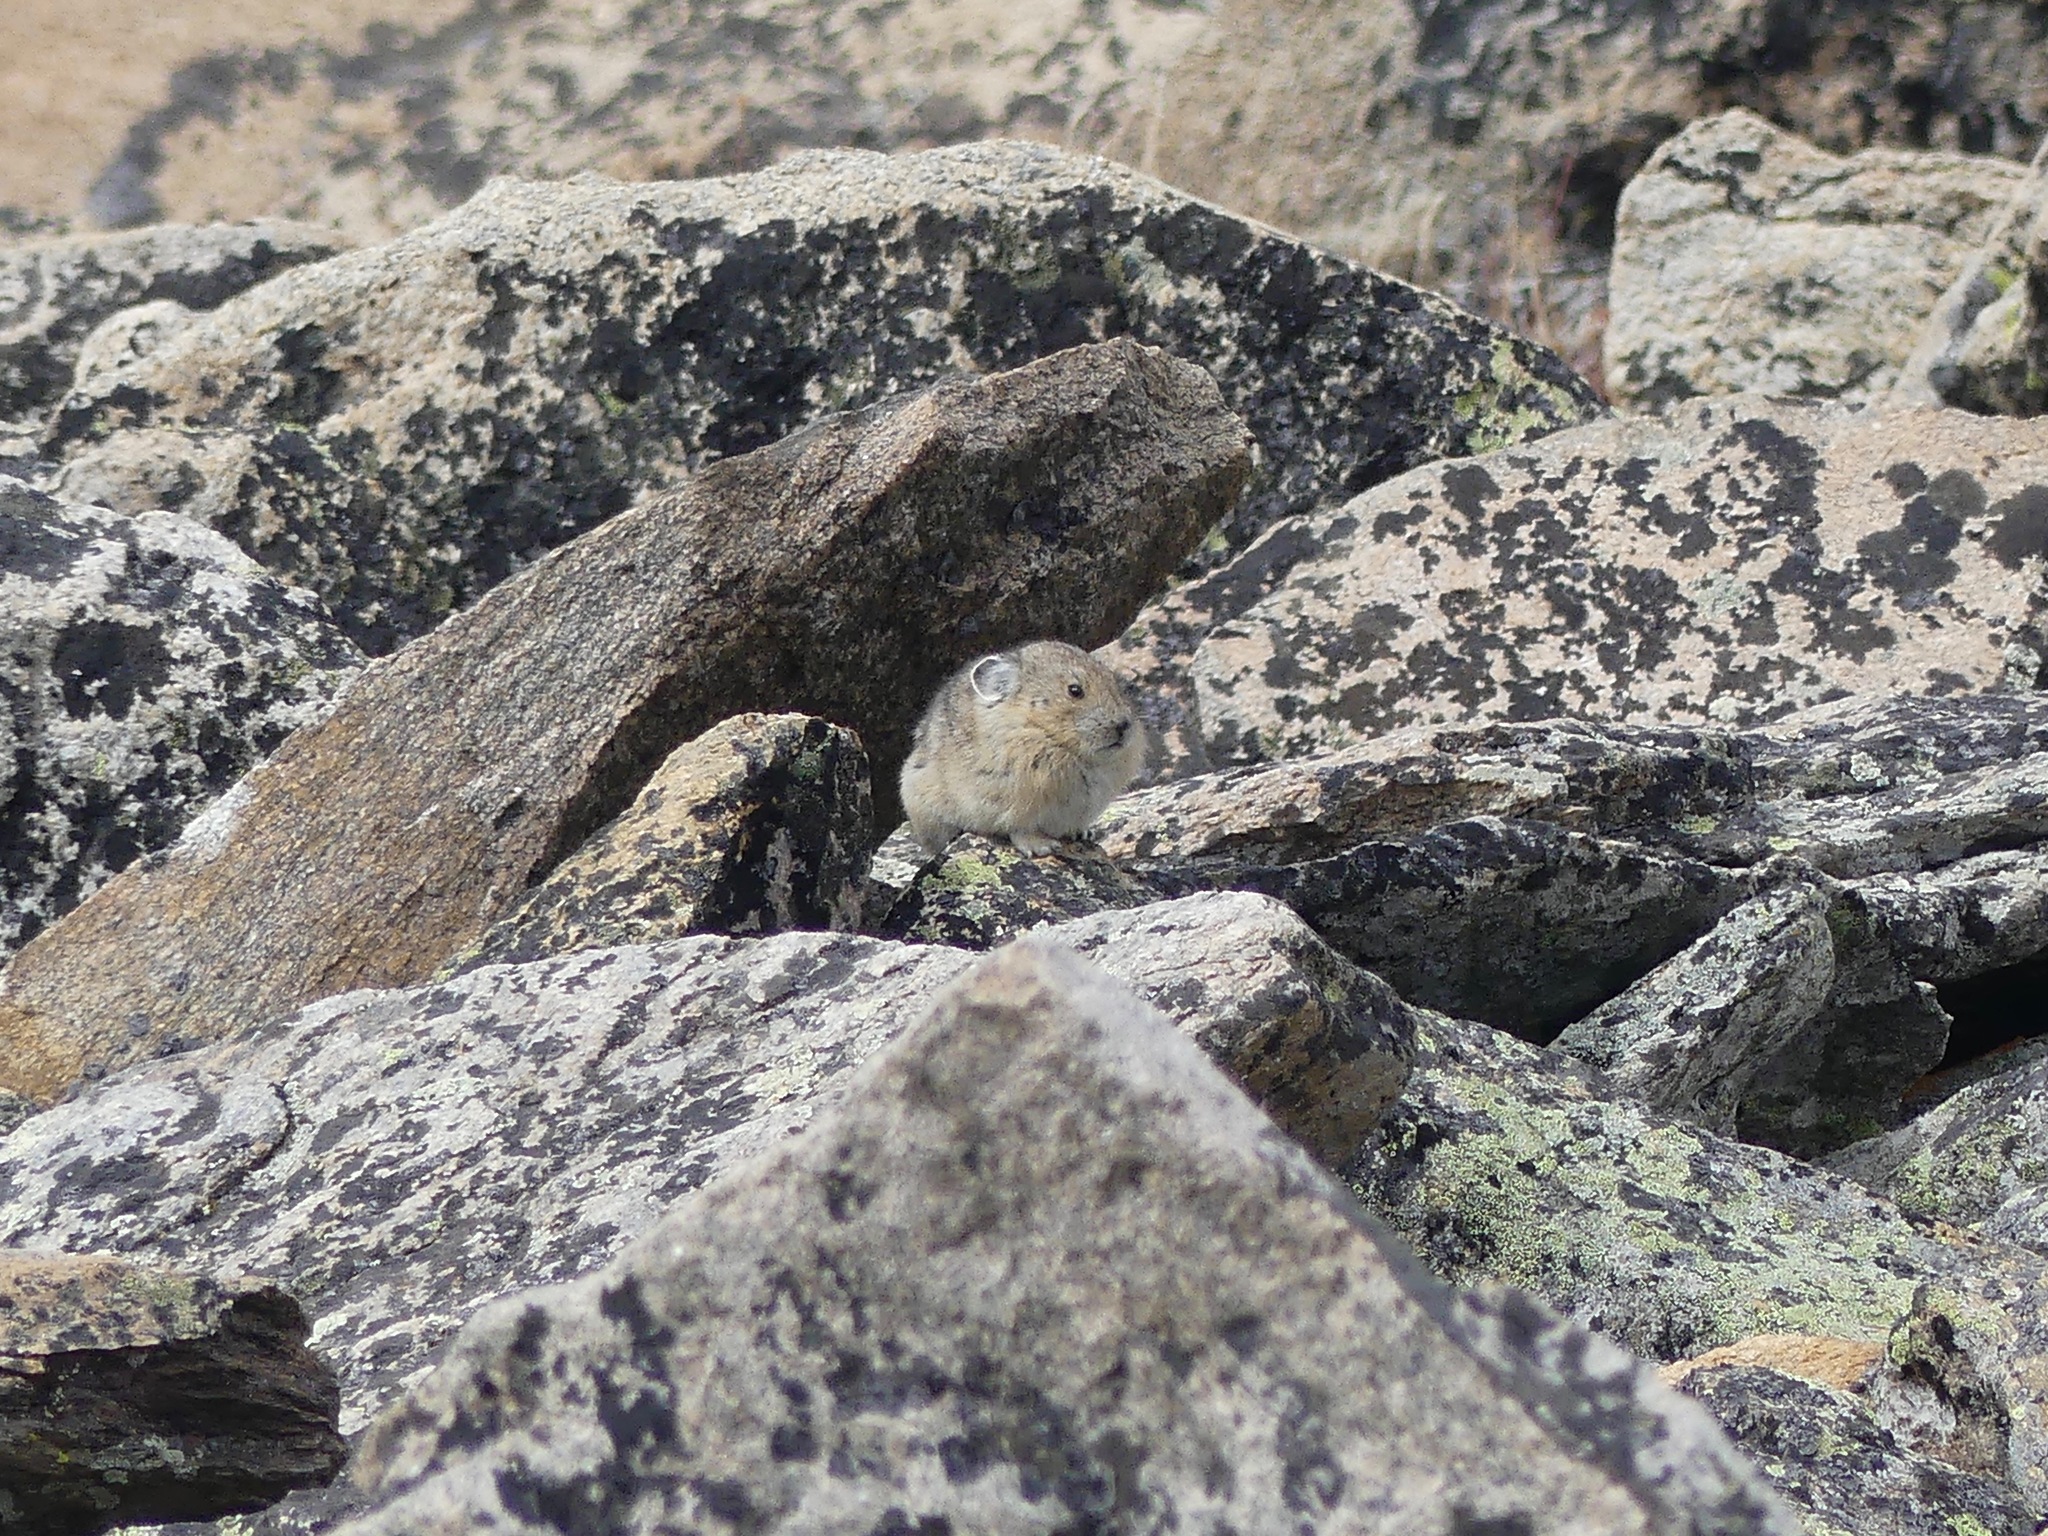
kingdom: Animalia
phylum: Chordata
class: Mammalia
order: Lagomorpha
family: Ochotonidae
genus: Ochotona
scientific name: Ochotona princeps
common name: American pika
